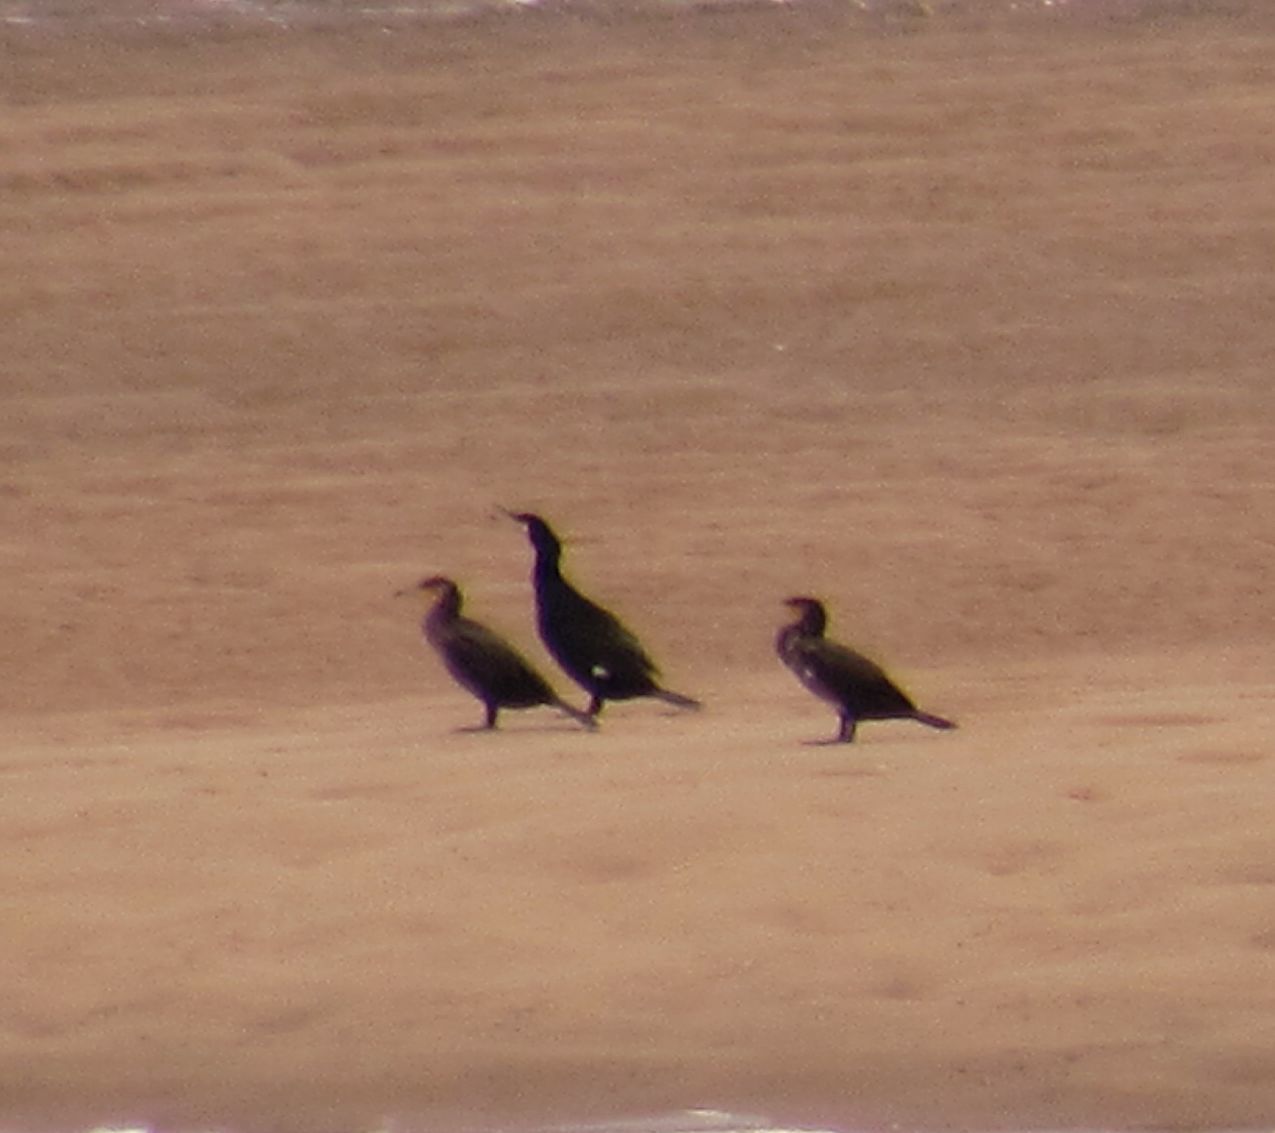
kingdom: Animalia
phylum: Chordata
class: Aves
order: Suliformes
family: Phalacrocoracidae
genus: Phalacrocorax
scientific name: Phalacrocorax carbo
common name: Great cormorant
